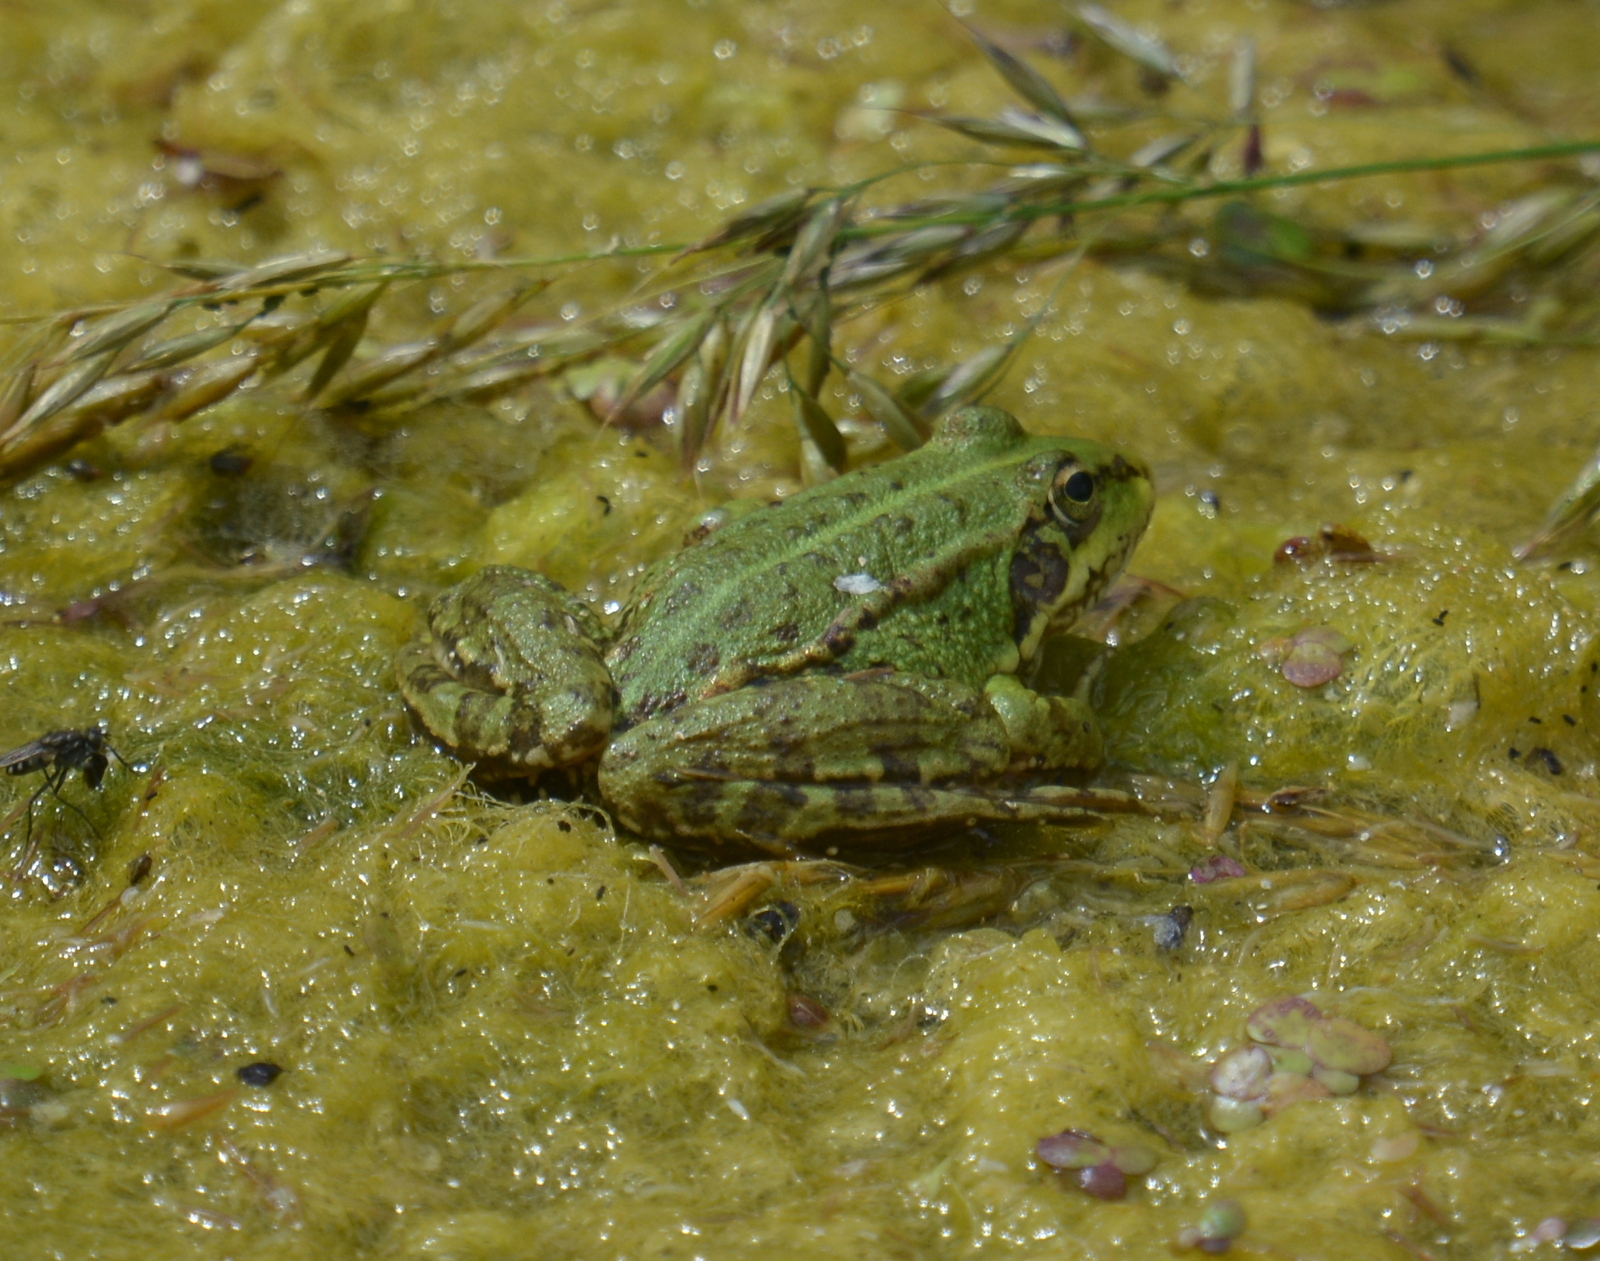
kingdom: Animalia
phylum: Chordata
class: Amphibia
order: Anura
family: Ranidae
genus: Pelophylax
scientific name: Pelophylax perezi
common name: Perez's frog
